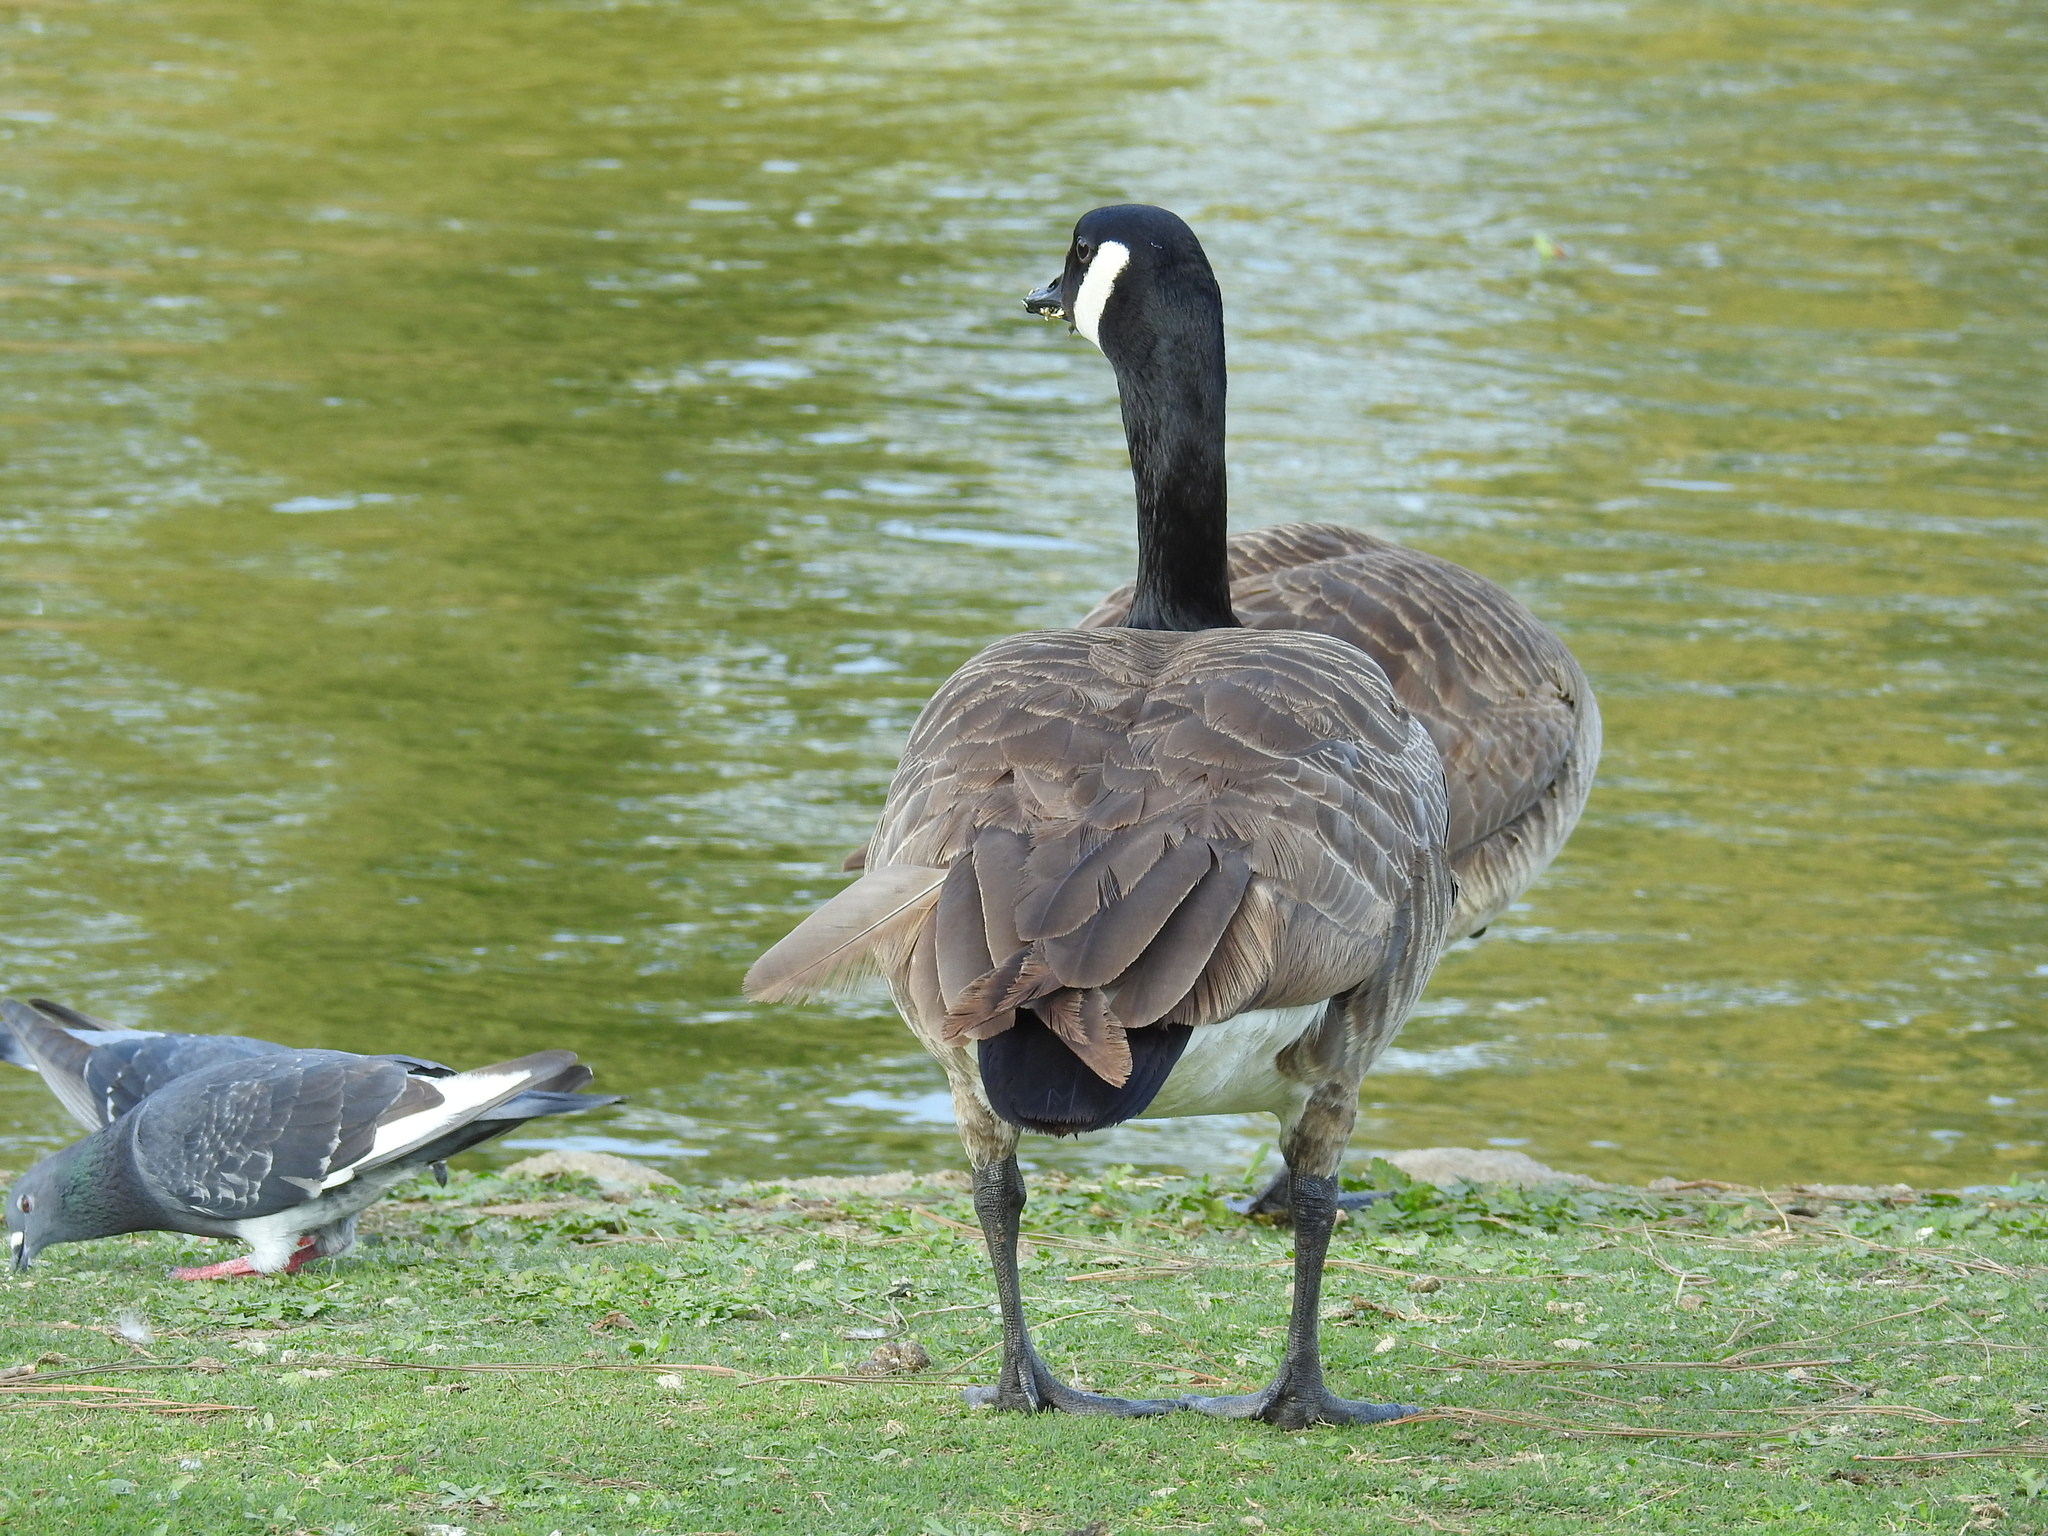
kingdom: Animalia
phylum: Chordata
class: Aves
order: Anseriformes
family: Anatidae
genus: Branta
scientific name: Branta canadensis
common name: Canada goose
